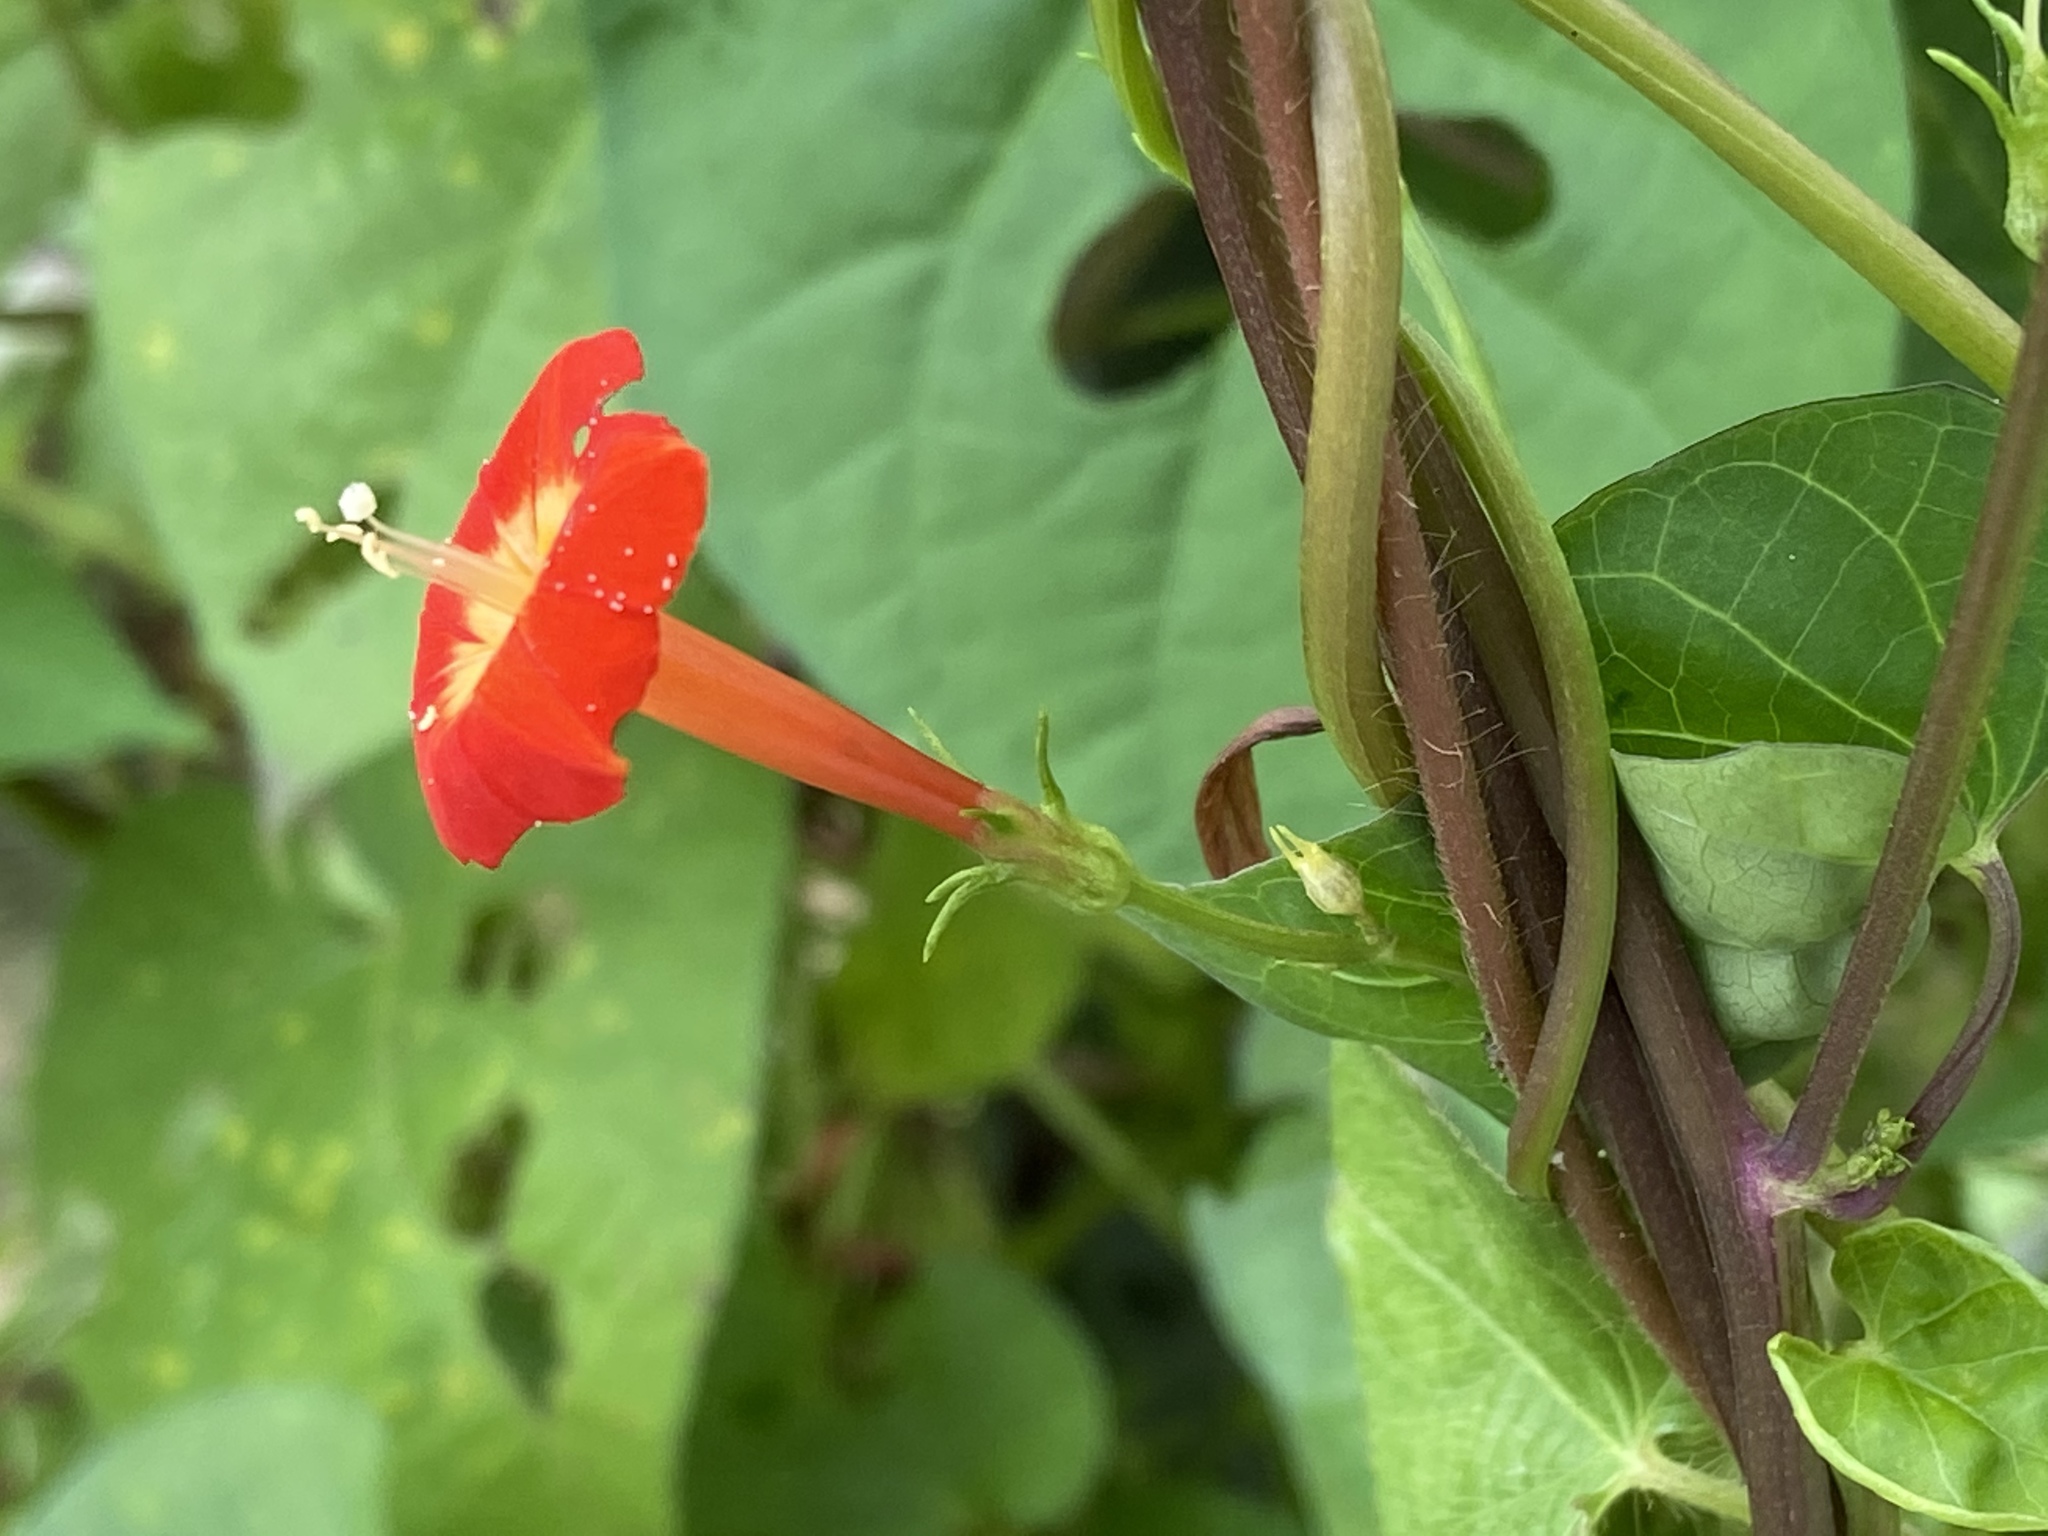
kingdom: Plantae
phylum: Tracheophyta
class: Magnoliopsida
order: Solanales
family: Convolvulaceae
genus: Ipomoea
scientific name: Ipomoea coccinea
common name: Red morning-glory
